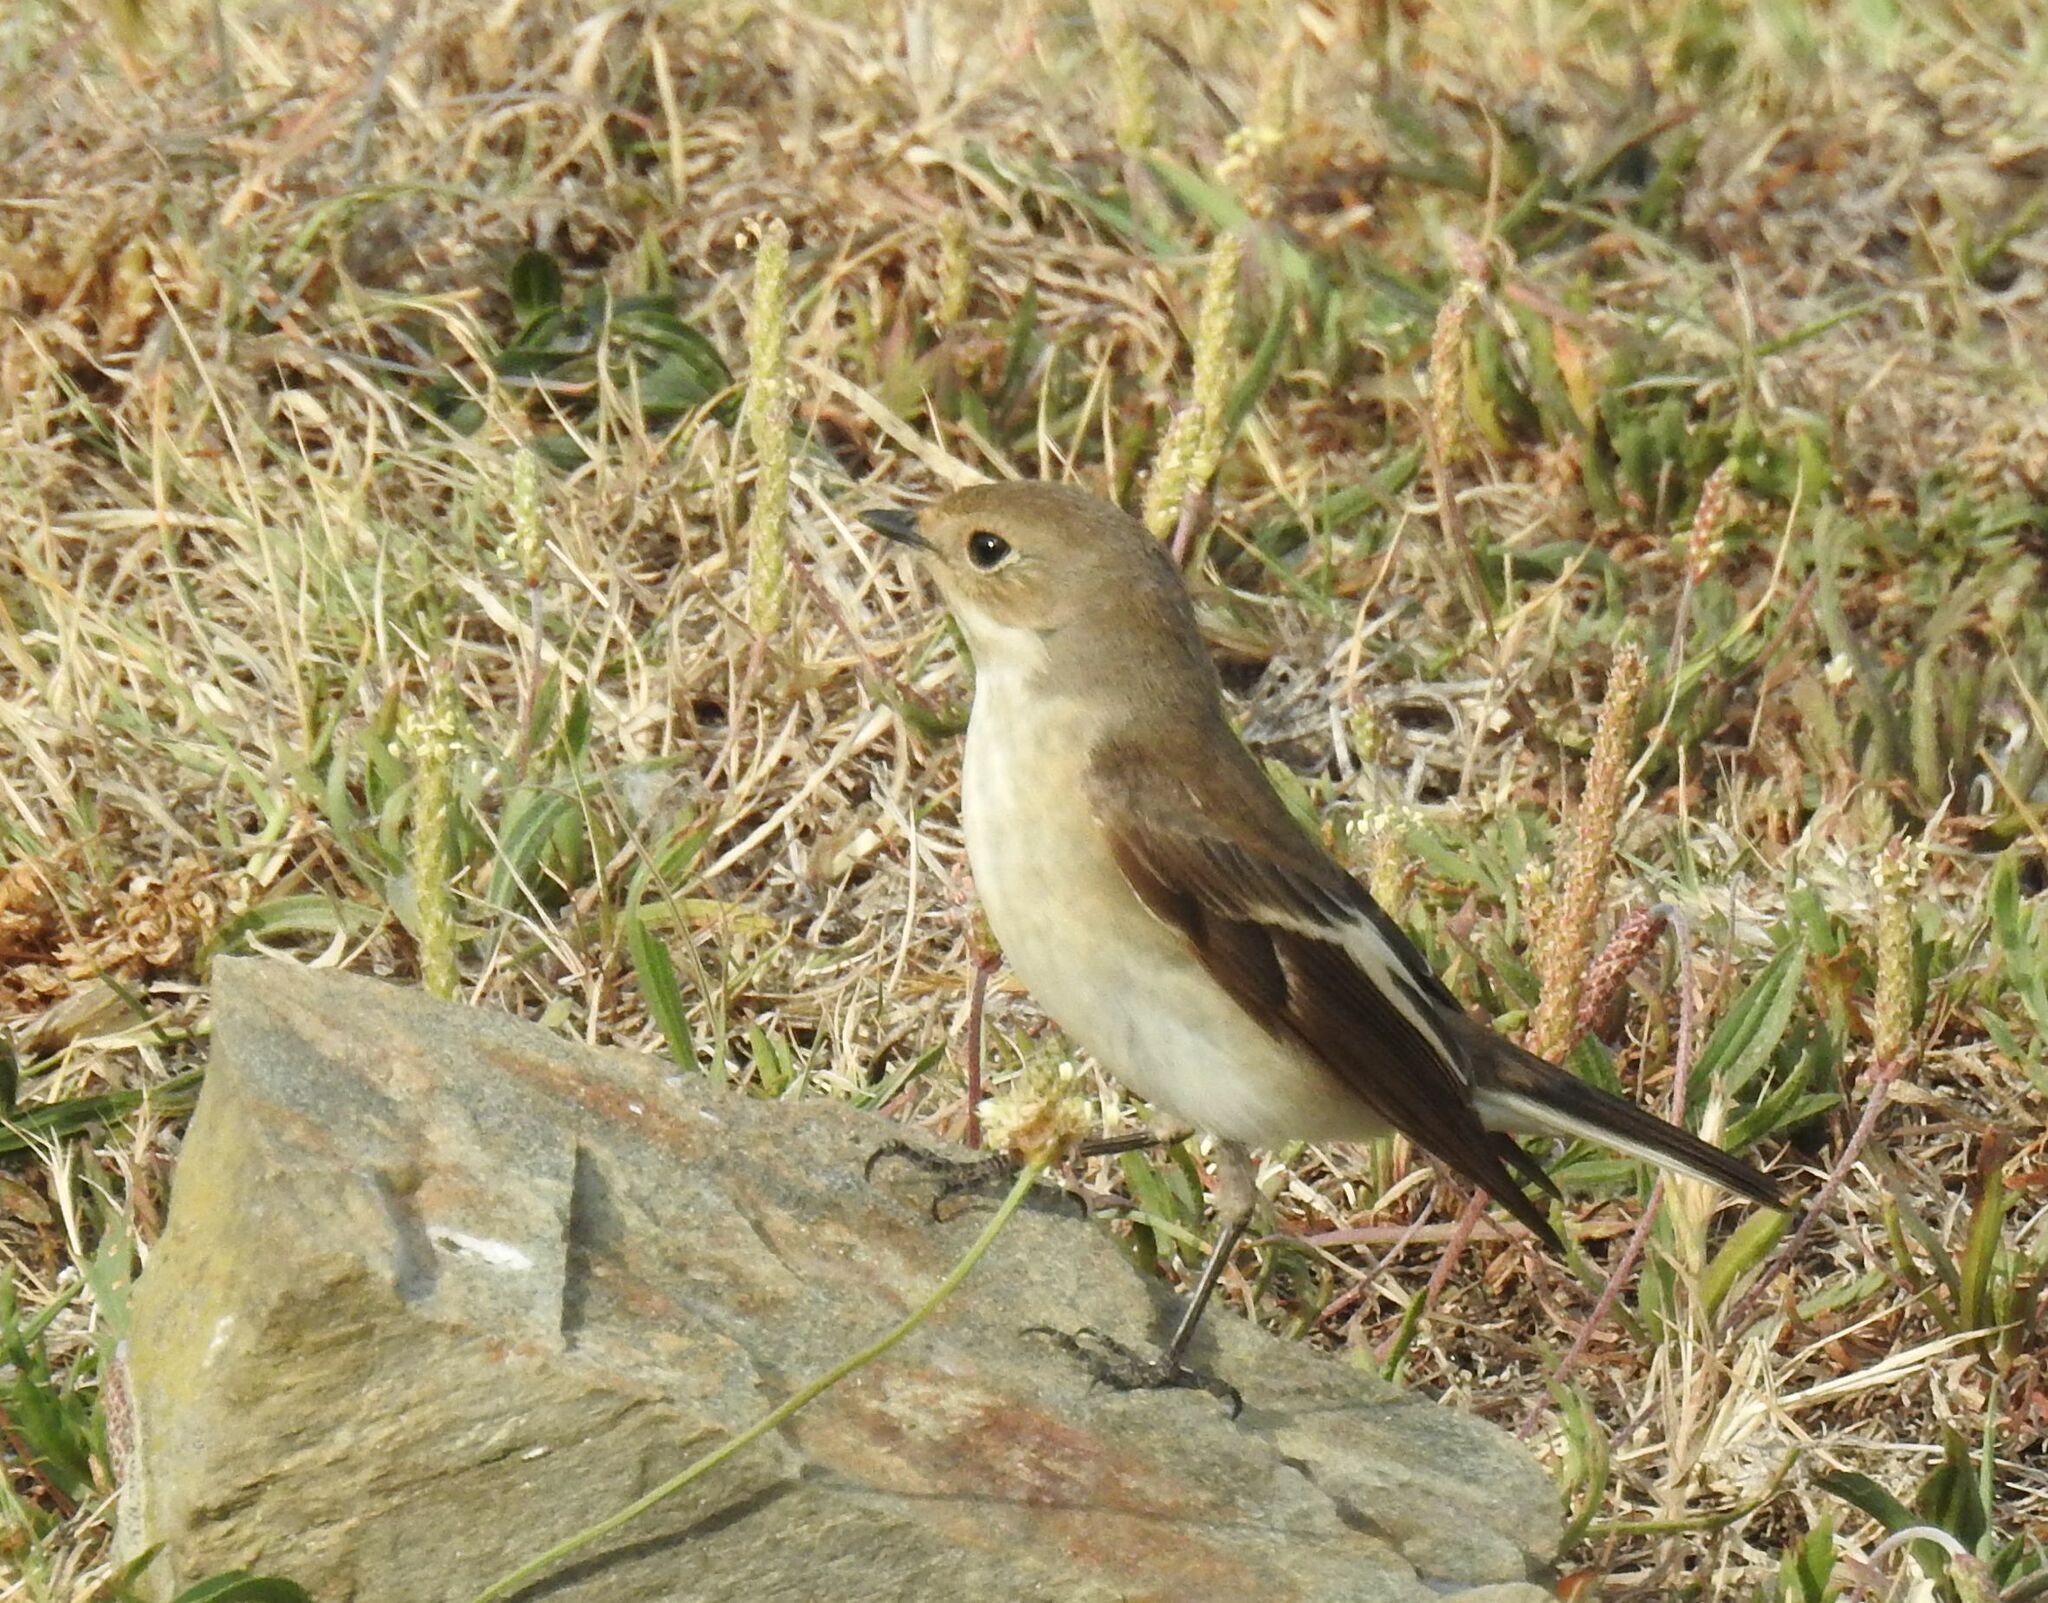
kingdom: Animalia
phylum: Chordata
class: Aves
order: Passeriformes
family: Muscicapidae
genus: Ficedula
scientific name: Ficedula hypoleuca
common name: European pied flycatcher
